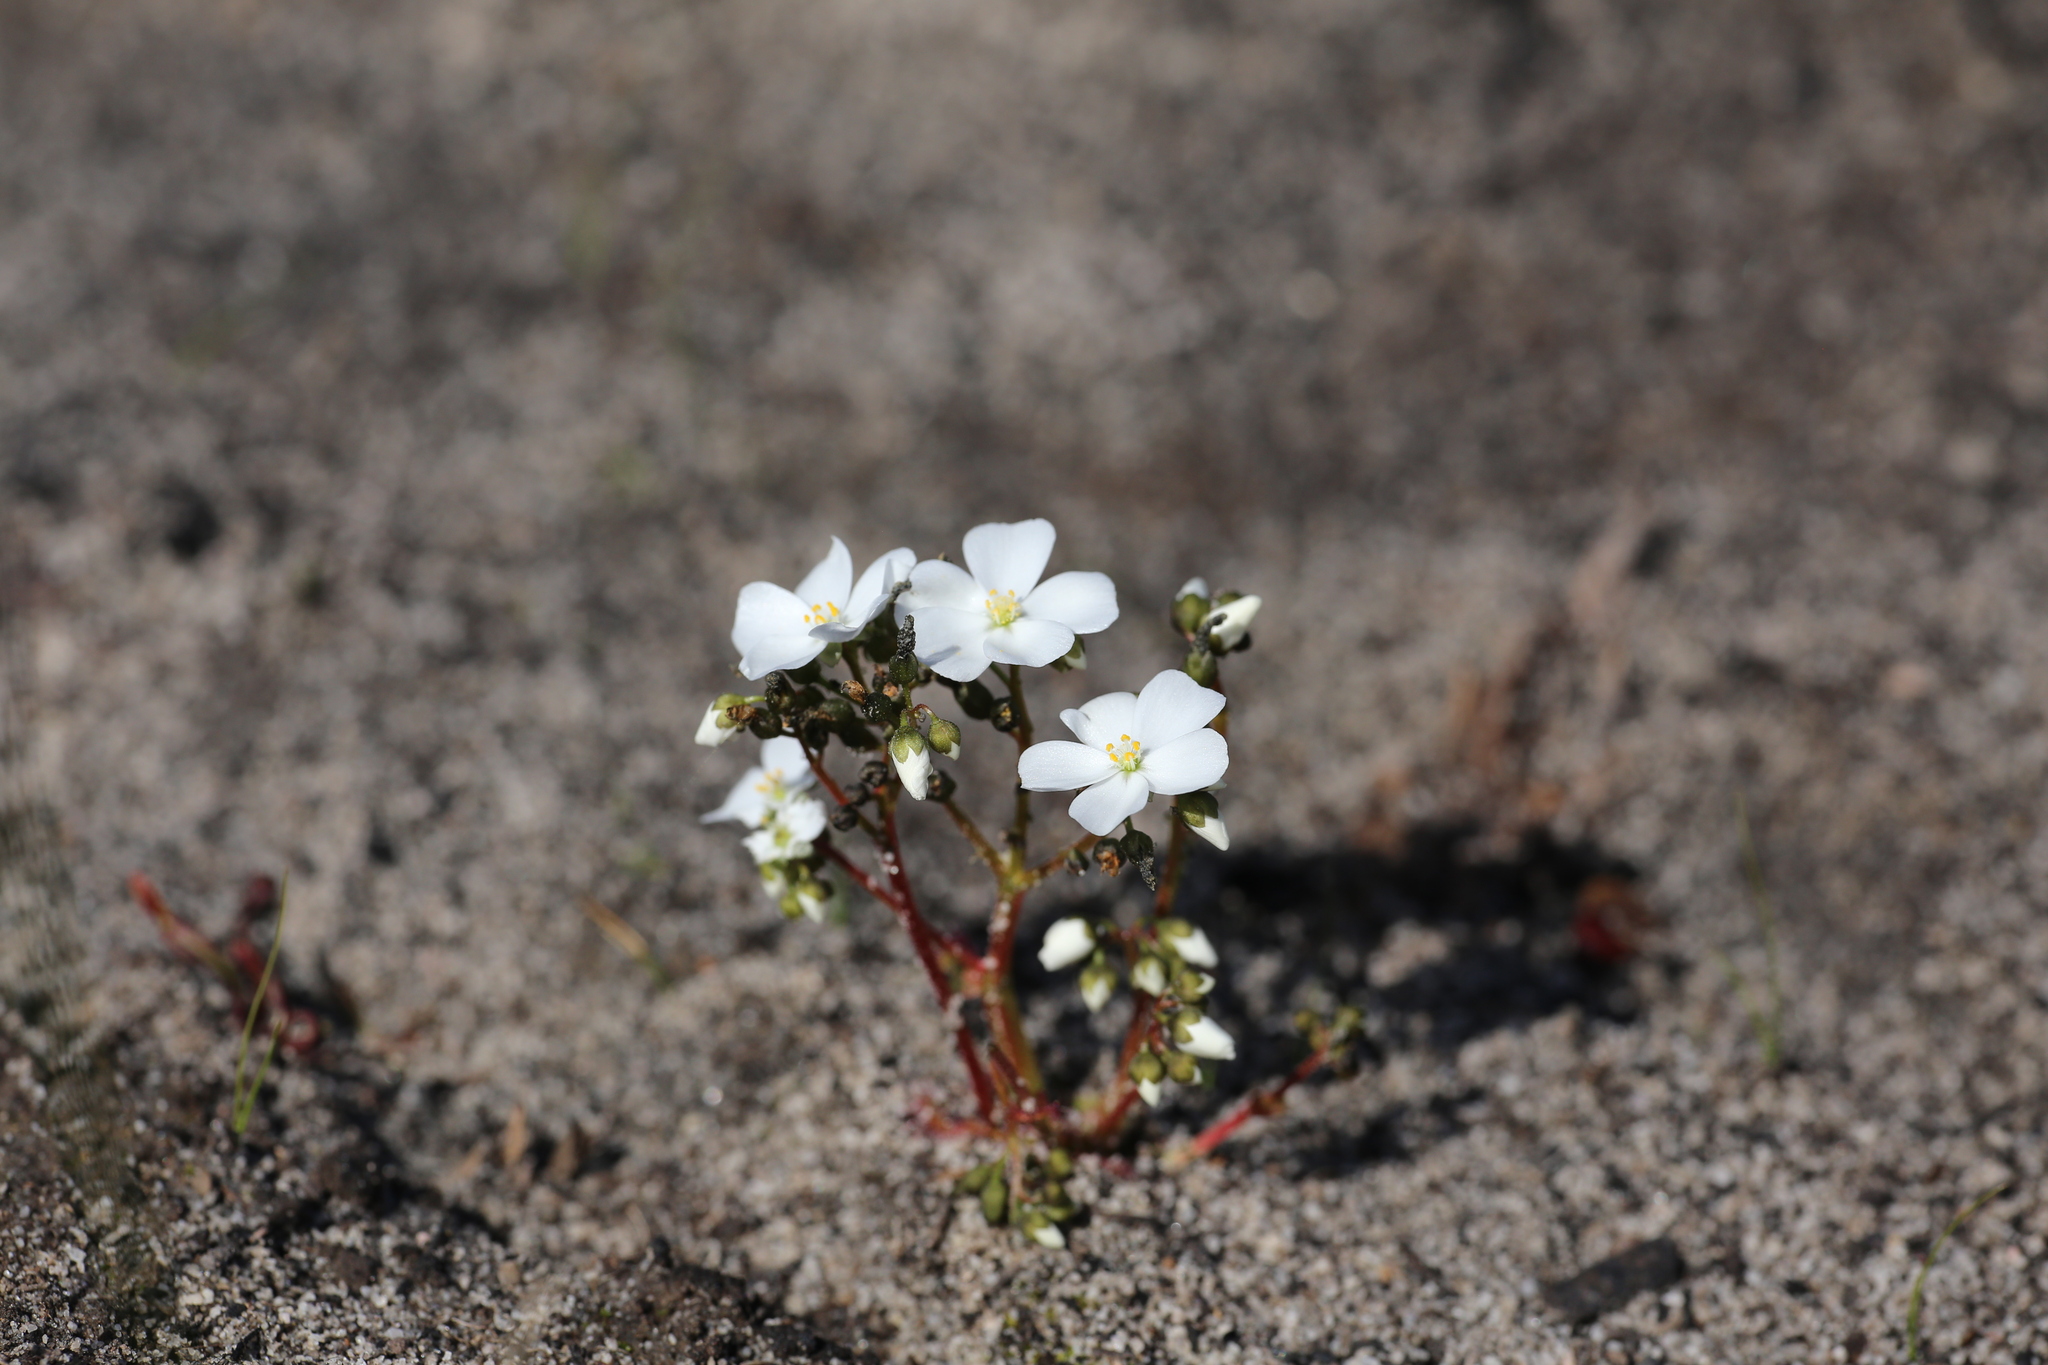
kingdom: Plantae
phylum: Tracheophyta
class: Magnoliopsida
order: Caryophyllales
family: Droseraceae
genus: Drosera
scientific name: Drosera stolonifera
